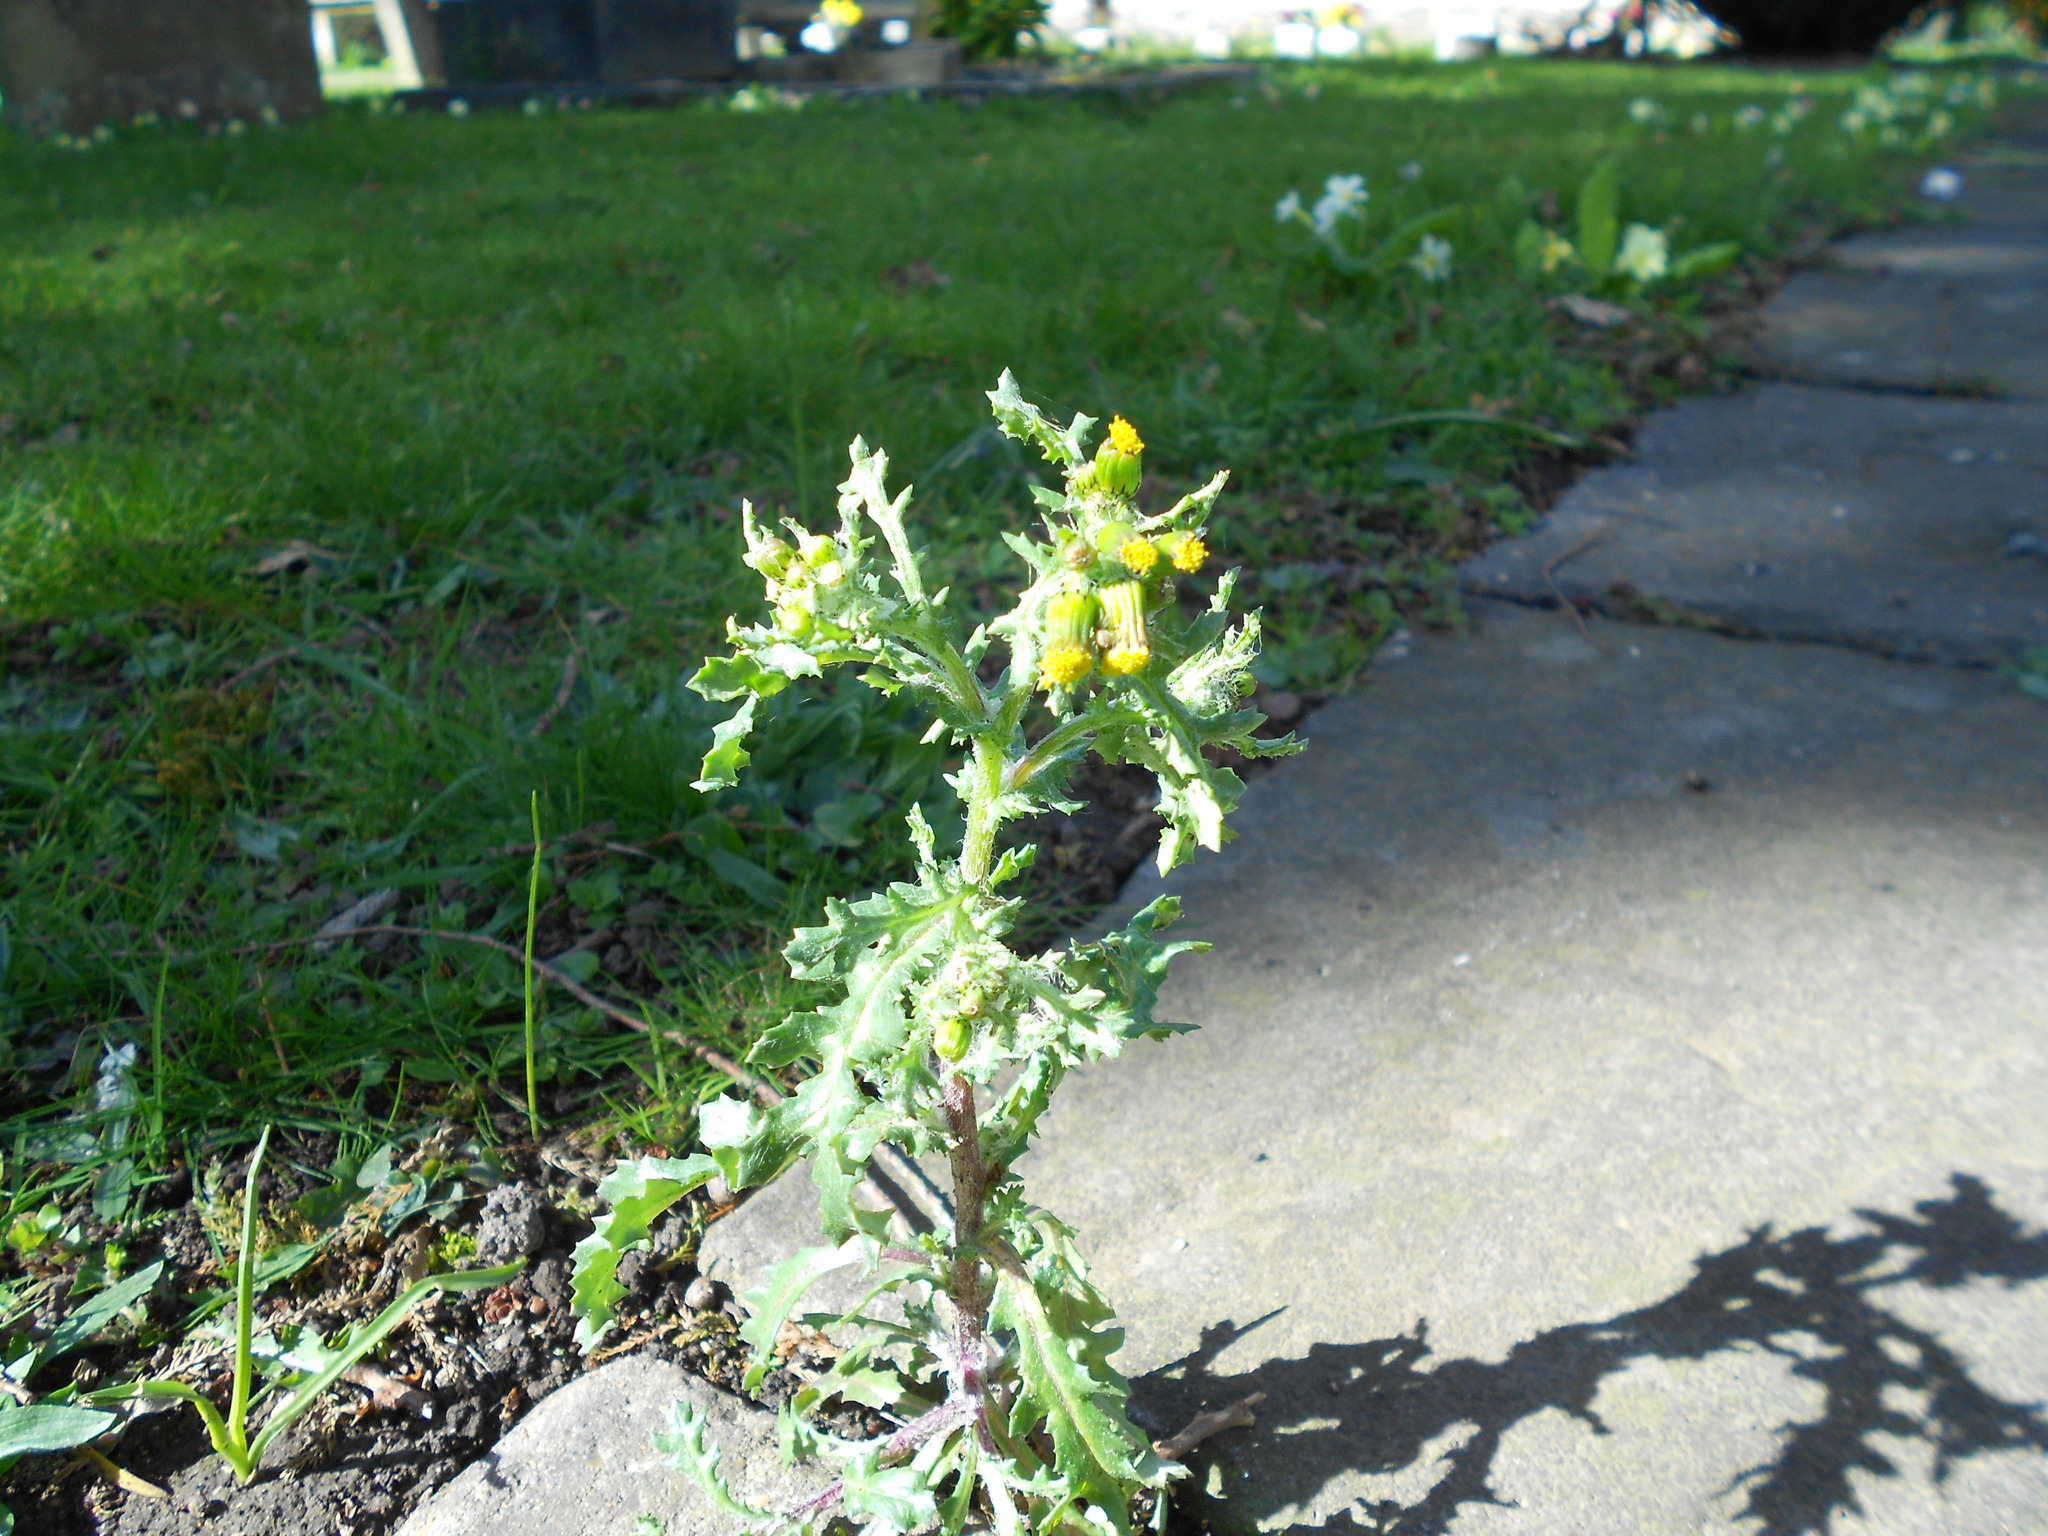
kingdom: Plantae
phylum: Tracheophyta
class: Magnoliopsida
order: Asterales
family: Asteraceae
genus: Senecio
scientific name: Senecio vulgaris
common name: Old-man-in-the-spring
